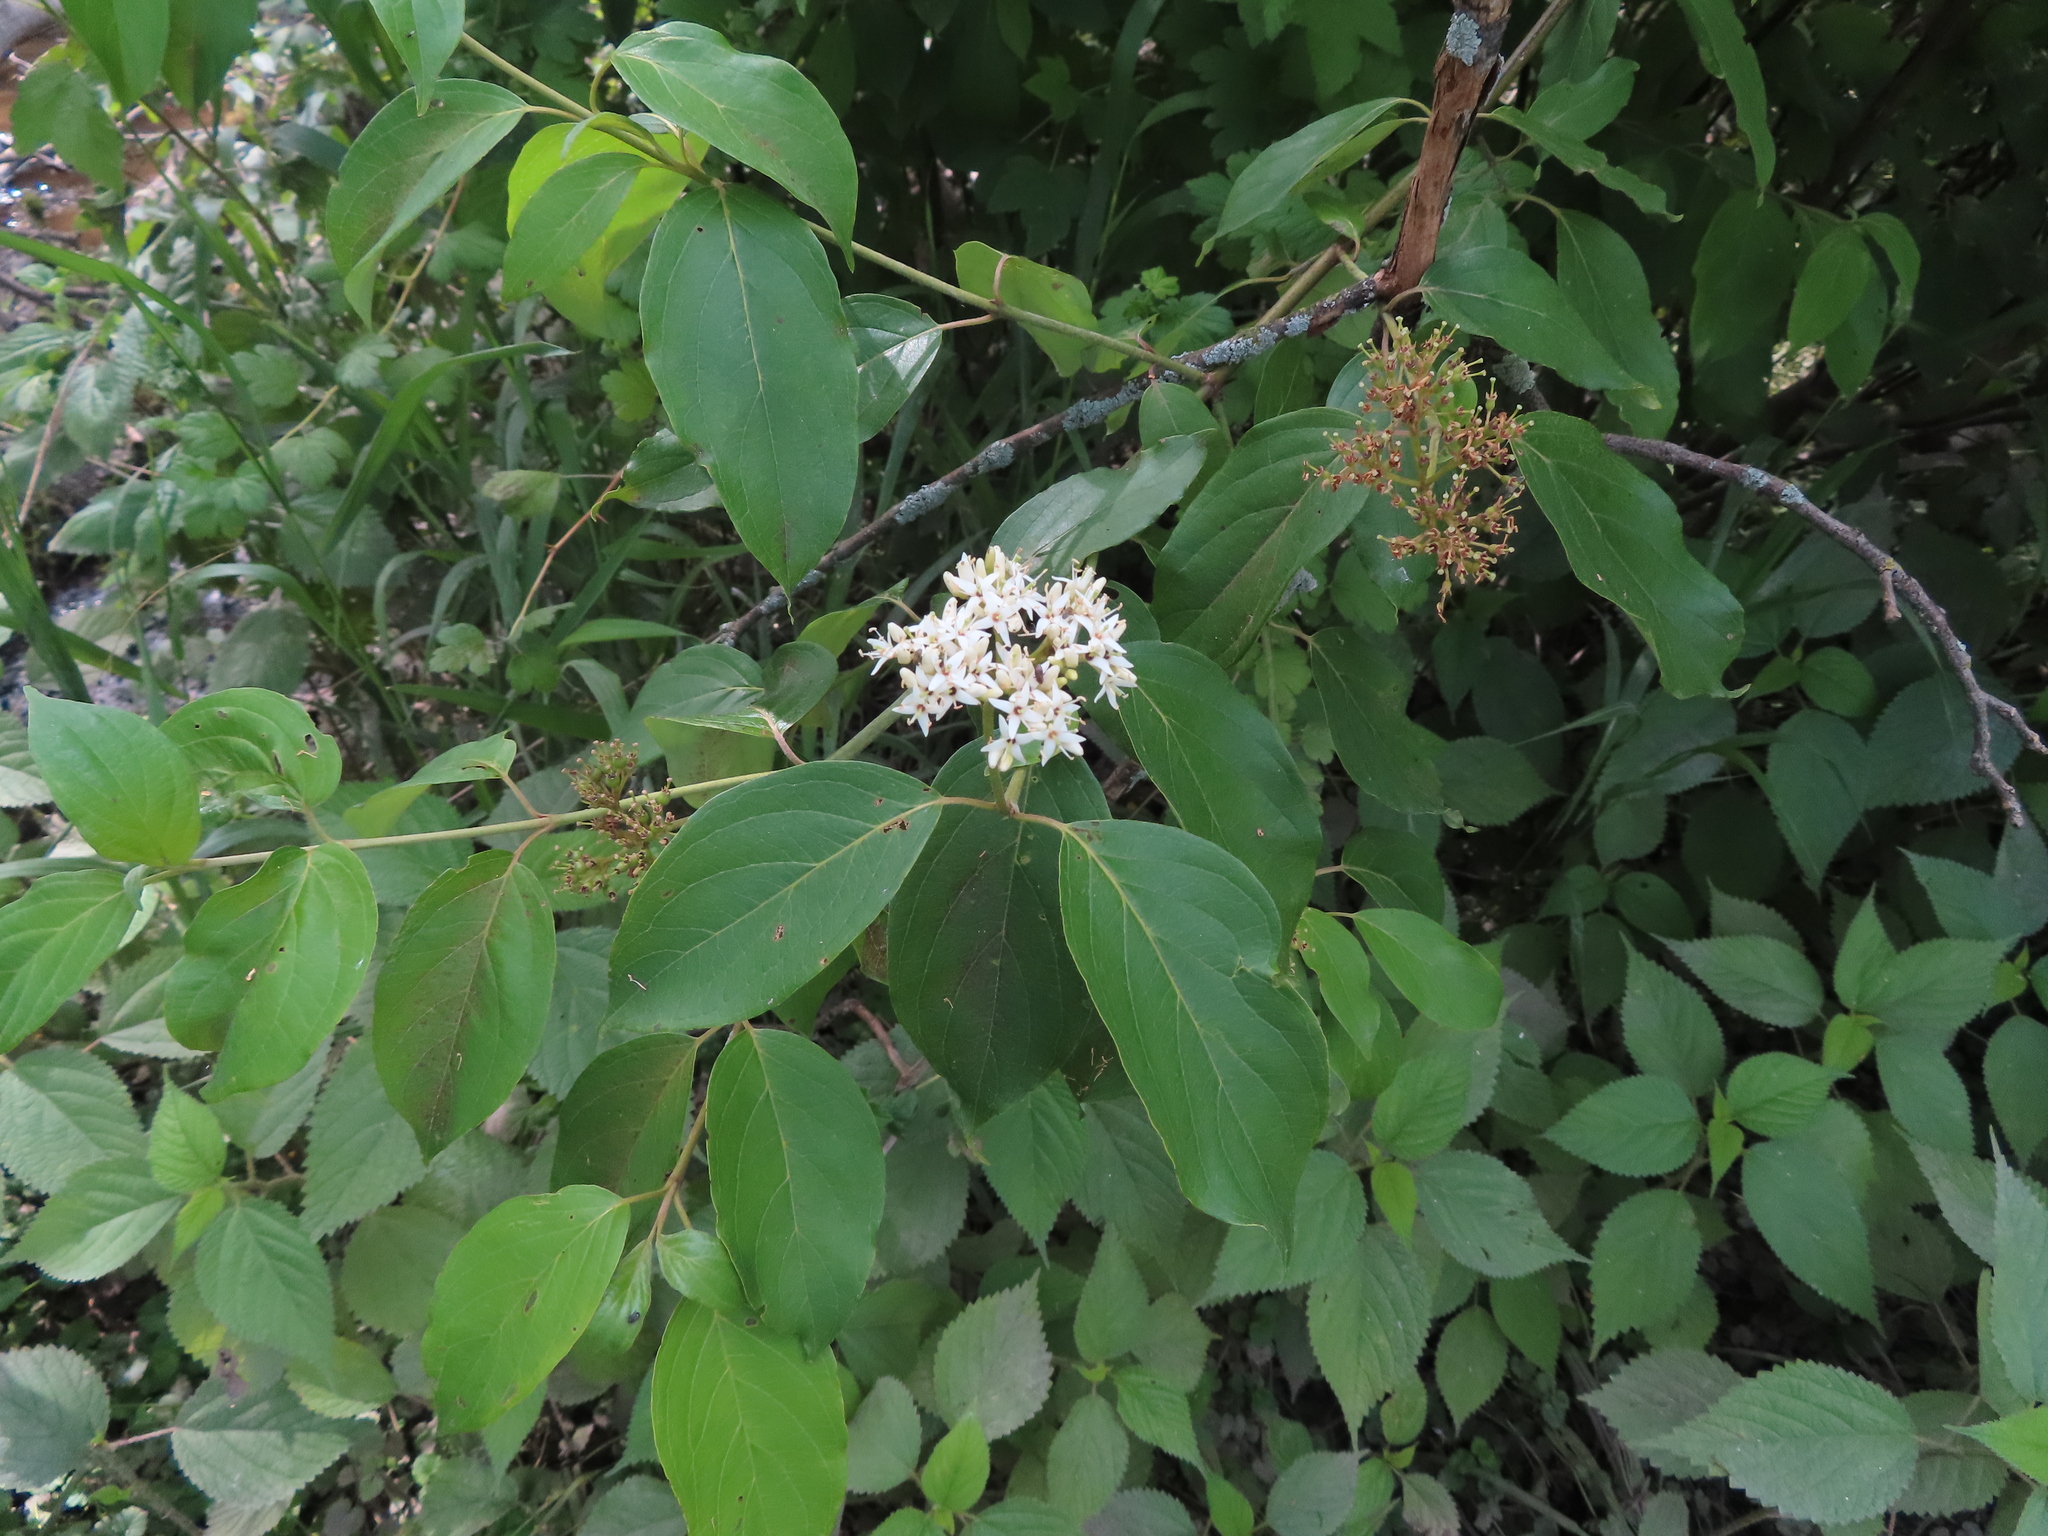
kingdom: Plantae
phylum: Tracheophyta
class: Magnoliopsida
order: Cornales
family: Cornaceae
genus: Cornus
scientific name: Cornus amomum
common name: Silky dogwood
